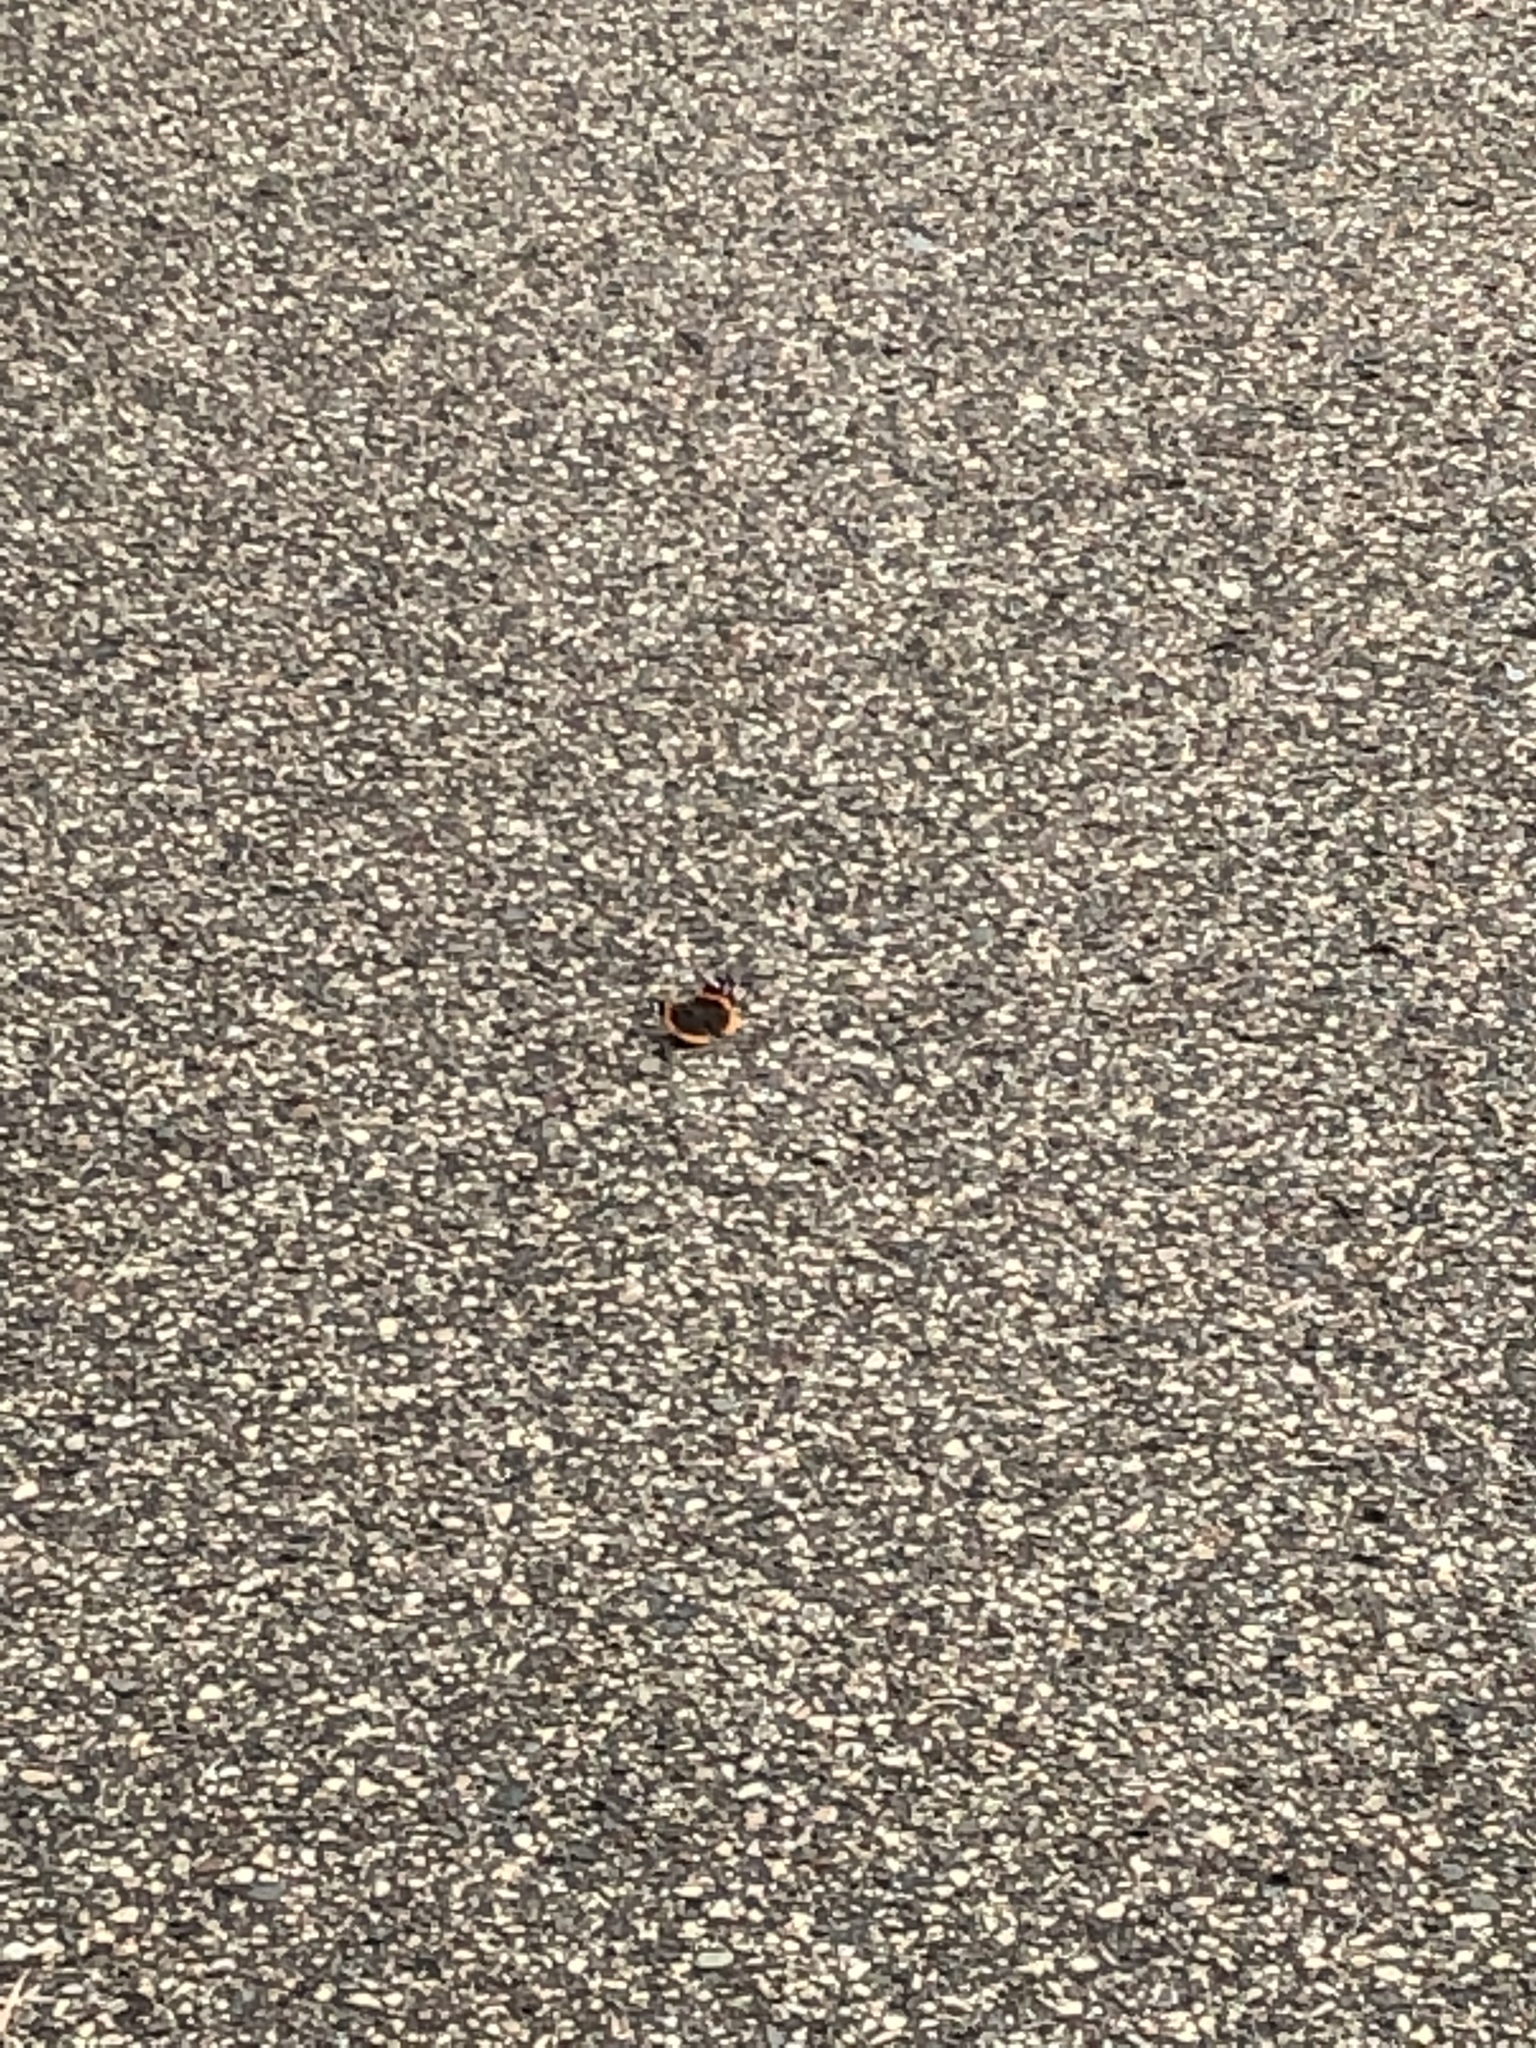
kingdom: Animalia
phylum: Arthropoda
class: Insecta
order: Lepidoptera
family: Nymphalidae
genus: Vanessa
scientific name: Vanessa atalanta
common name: Red admiral
